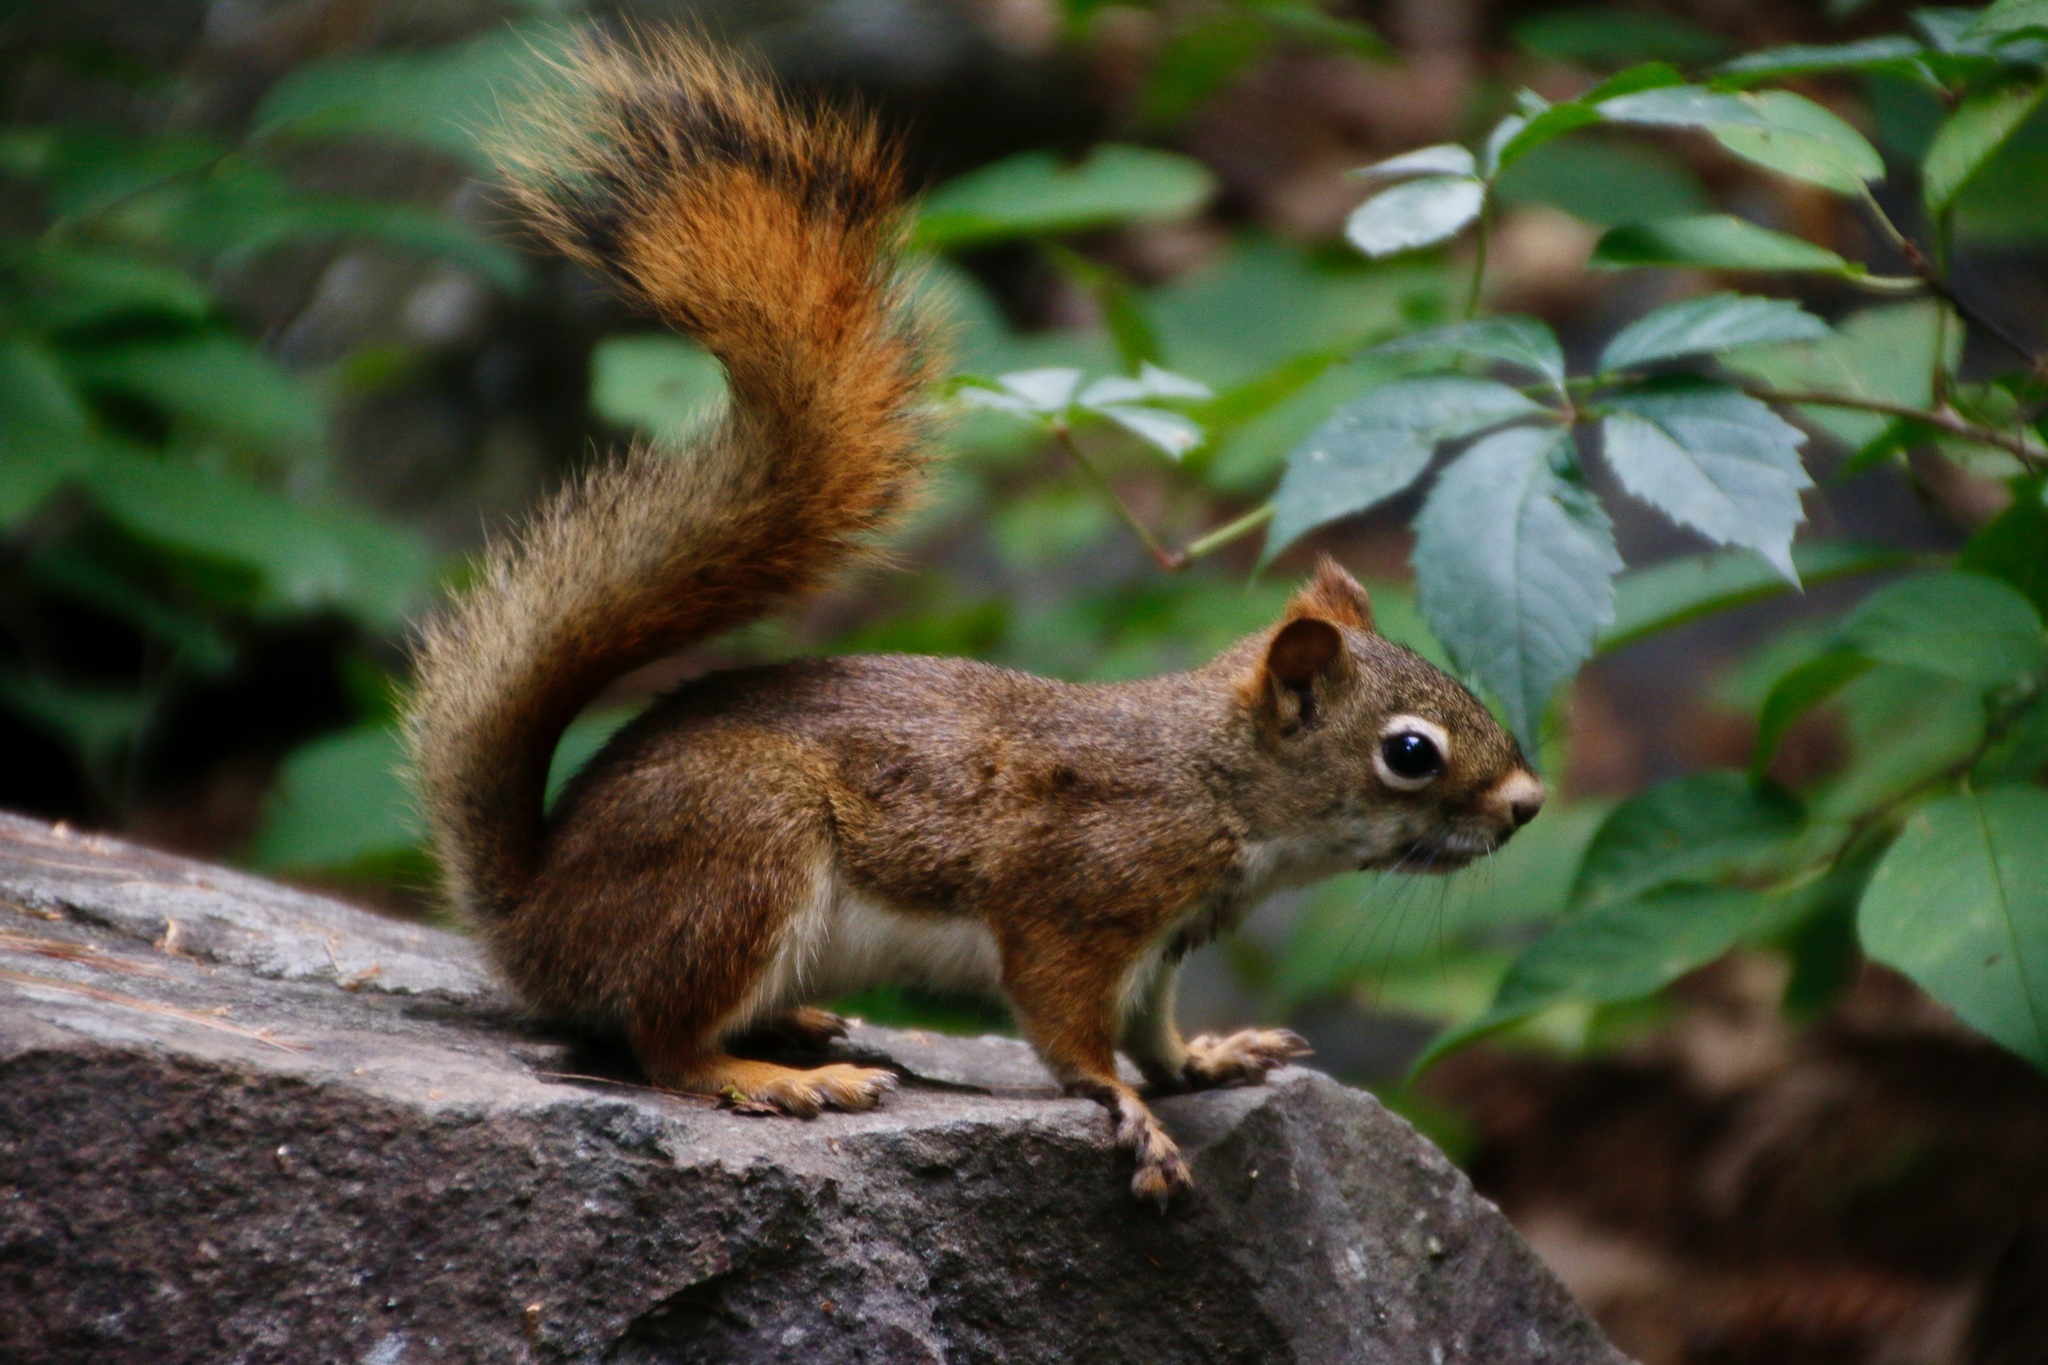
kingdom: Animalia
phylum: Chordata
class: Mammalia
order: Rodentia
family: Sciuridae
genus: Tamiasciurus
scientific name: Tamiasciurus hudsonicus
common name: Red squirrel
